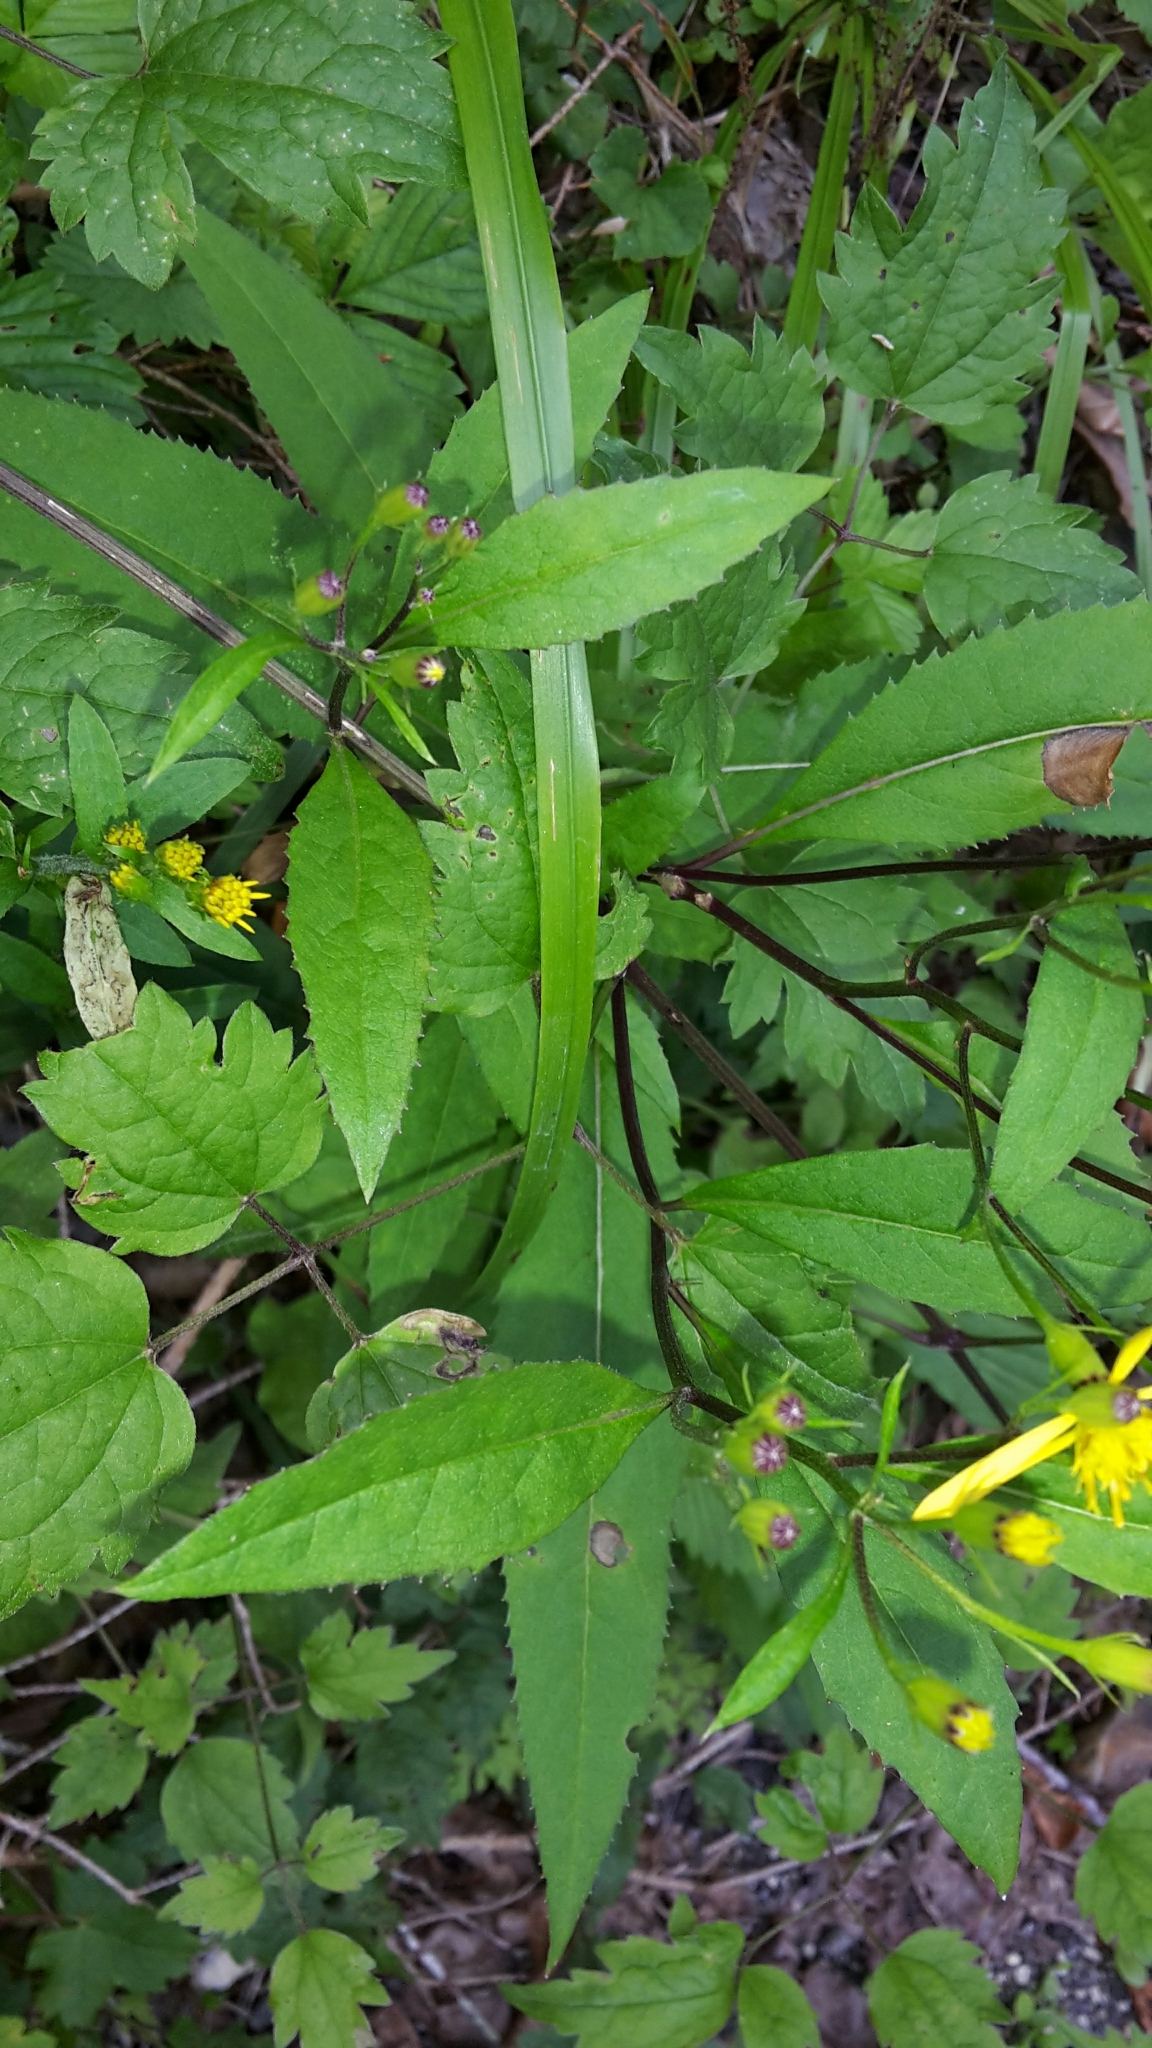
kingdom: Plantae
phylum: Tracheophyta
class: Magnoliopsida
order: Asterales
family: Asteraceae
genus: Senecio
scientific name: Senecio ovatus
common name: Wood ragwort
